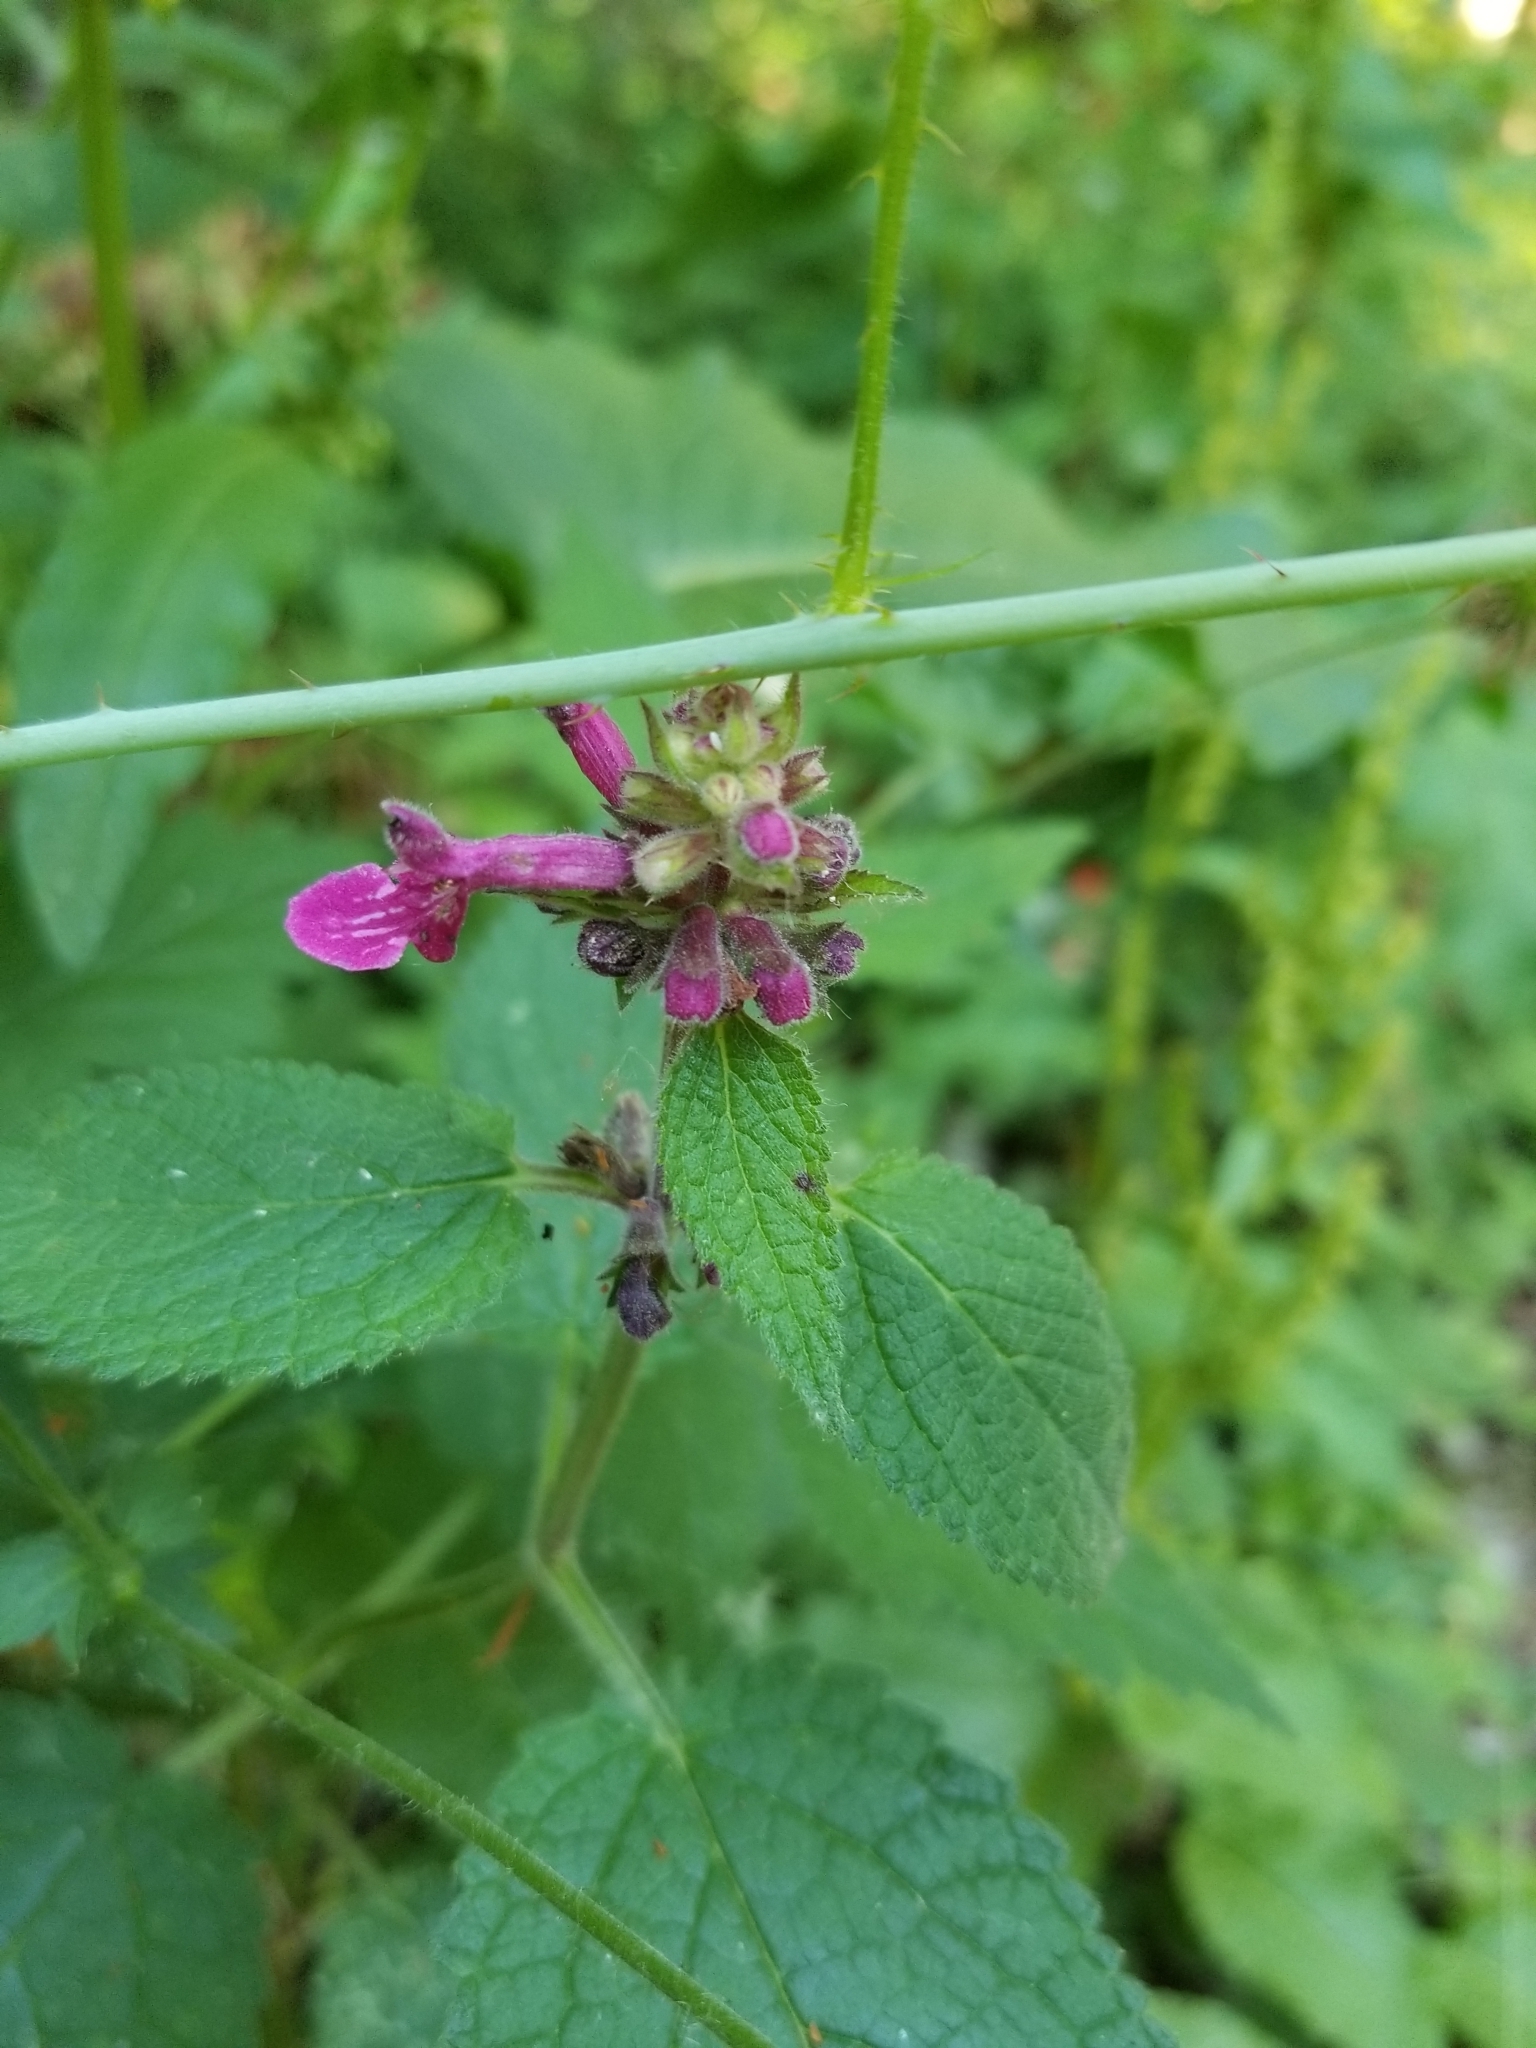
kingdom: Plantae
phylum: Tracheophyta
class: Magnoliopsida
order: Lamiales
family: Lamiaceae
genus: Stachys
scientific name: Stachys chamissonis
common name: Coastal hedge-nettle
